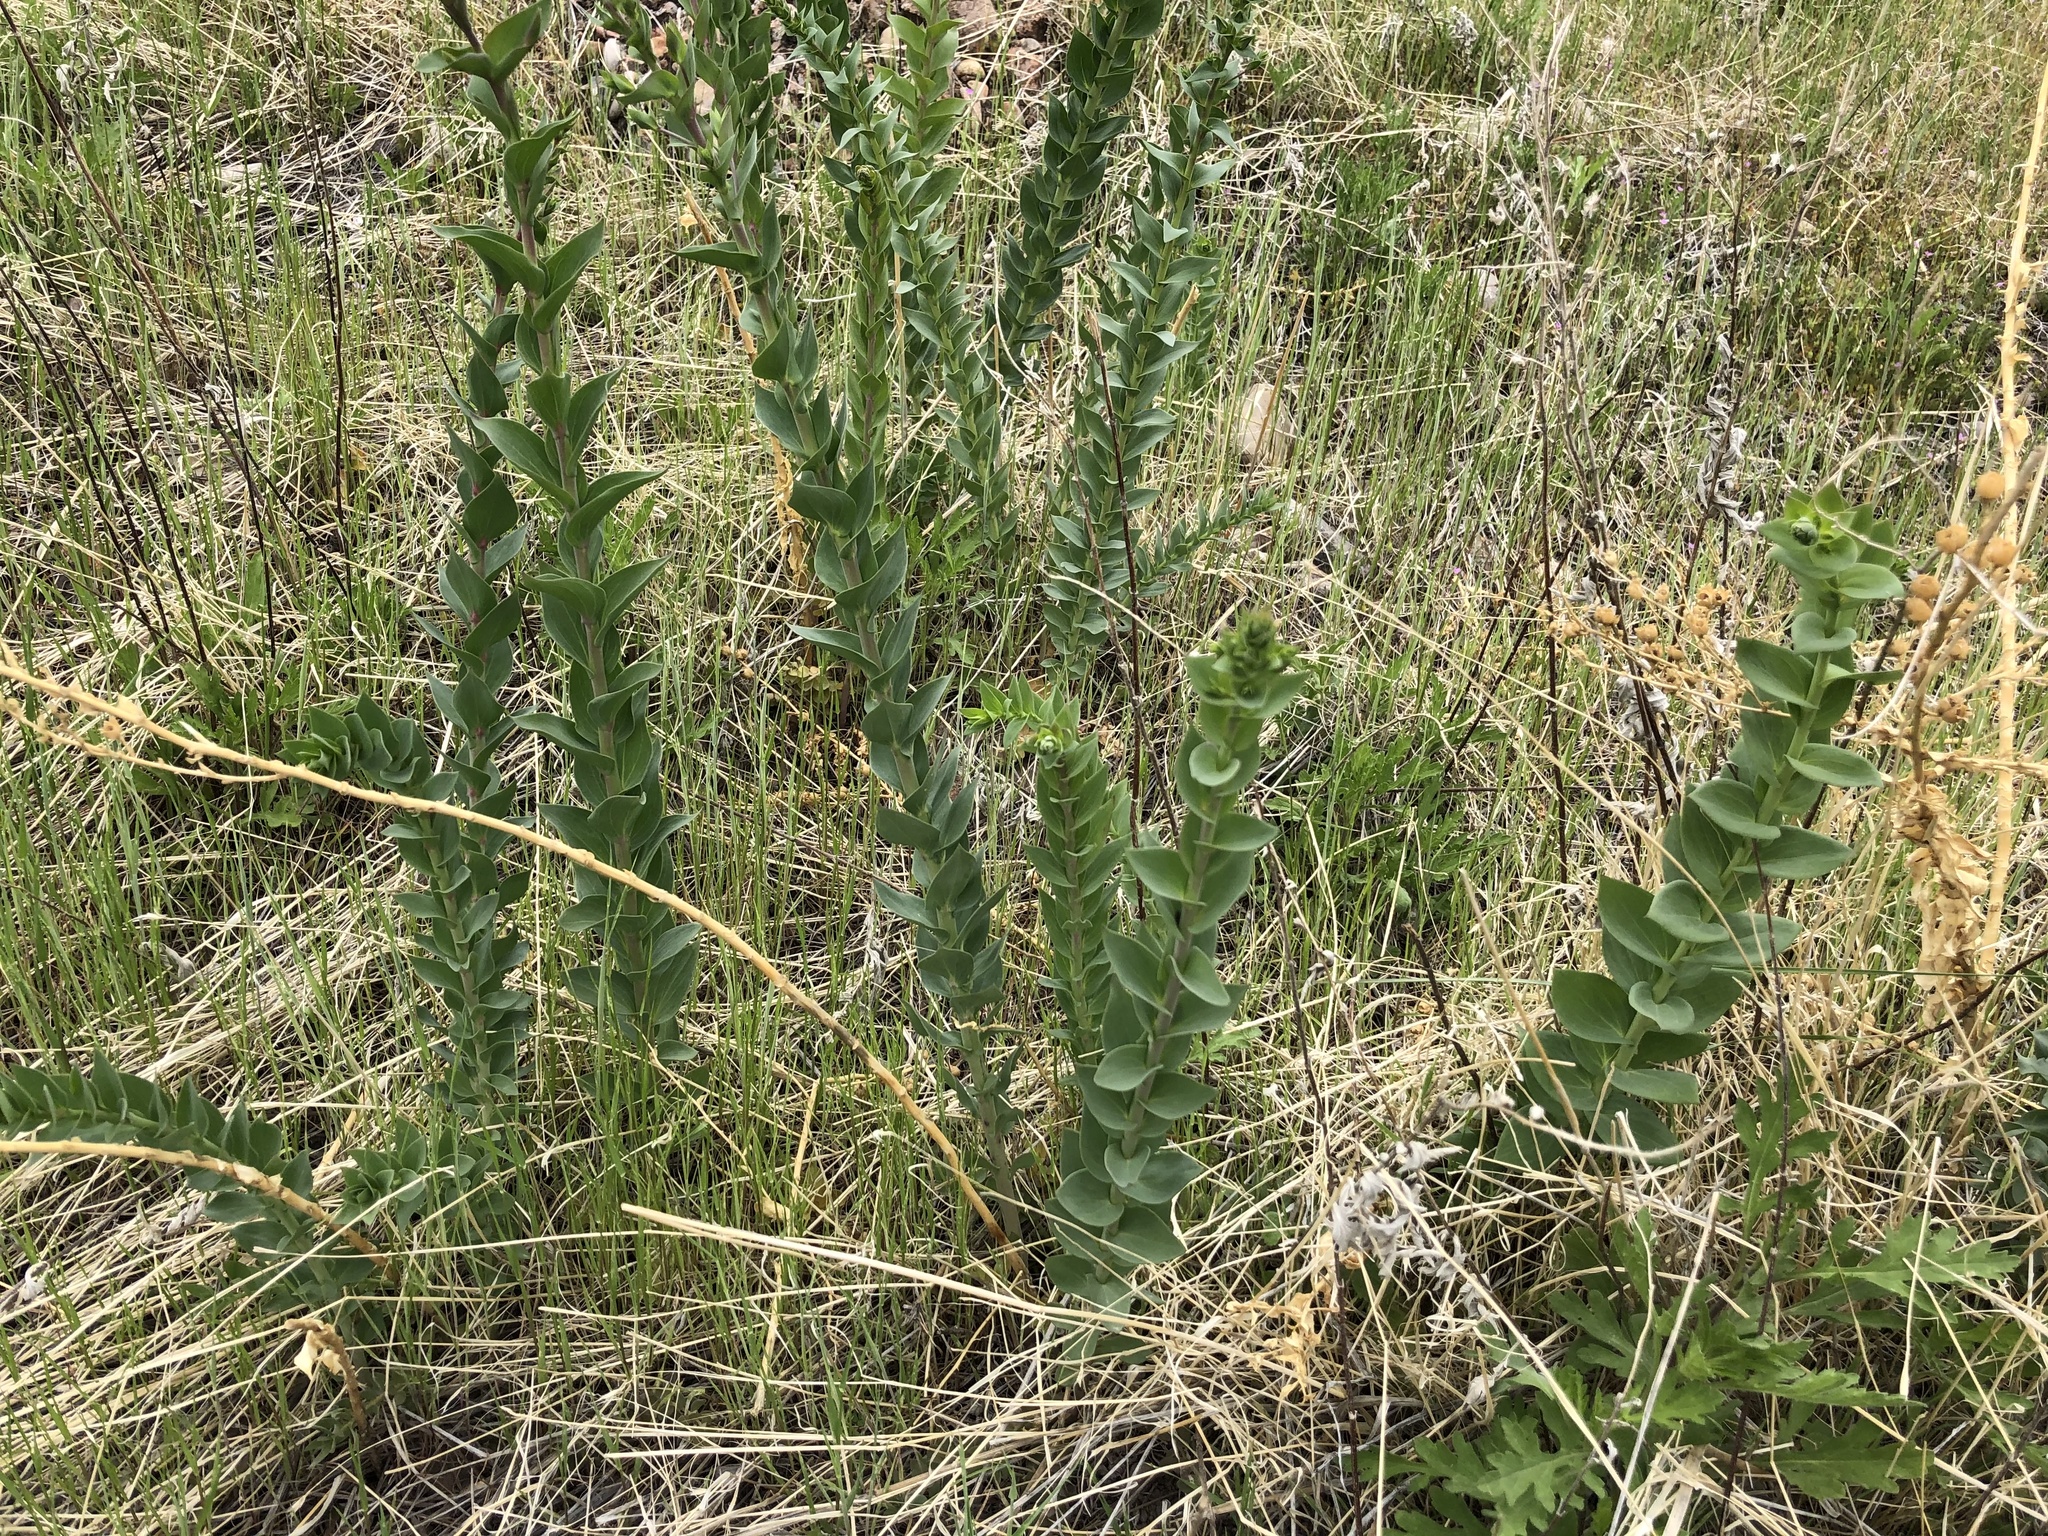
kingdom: Plantae
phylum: Tracheophyta
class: Magnoliopsida
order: Lamiales
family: Plantaginaceae
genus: Linaria
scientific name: Linaria dalmatica
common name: Dalmatian toadflax
